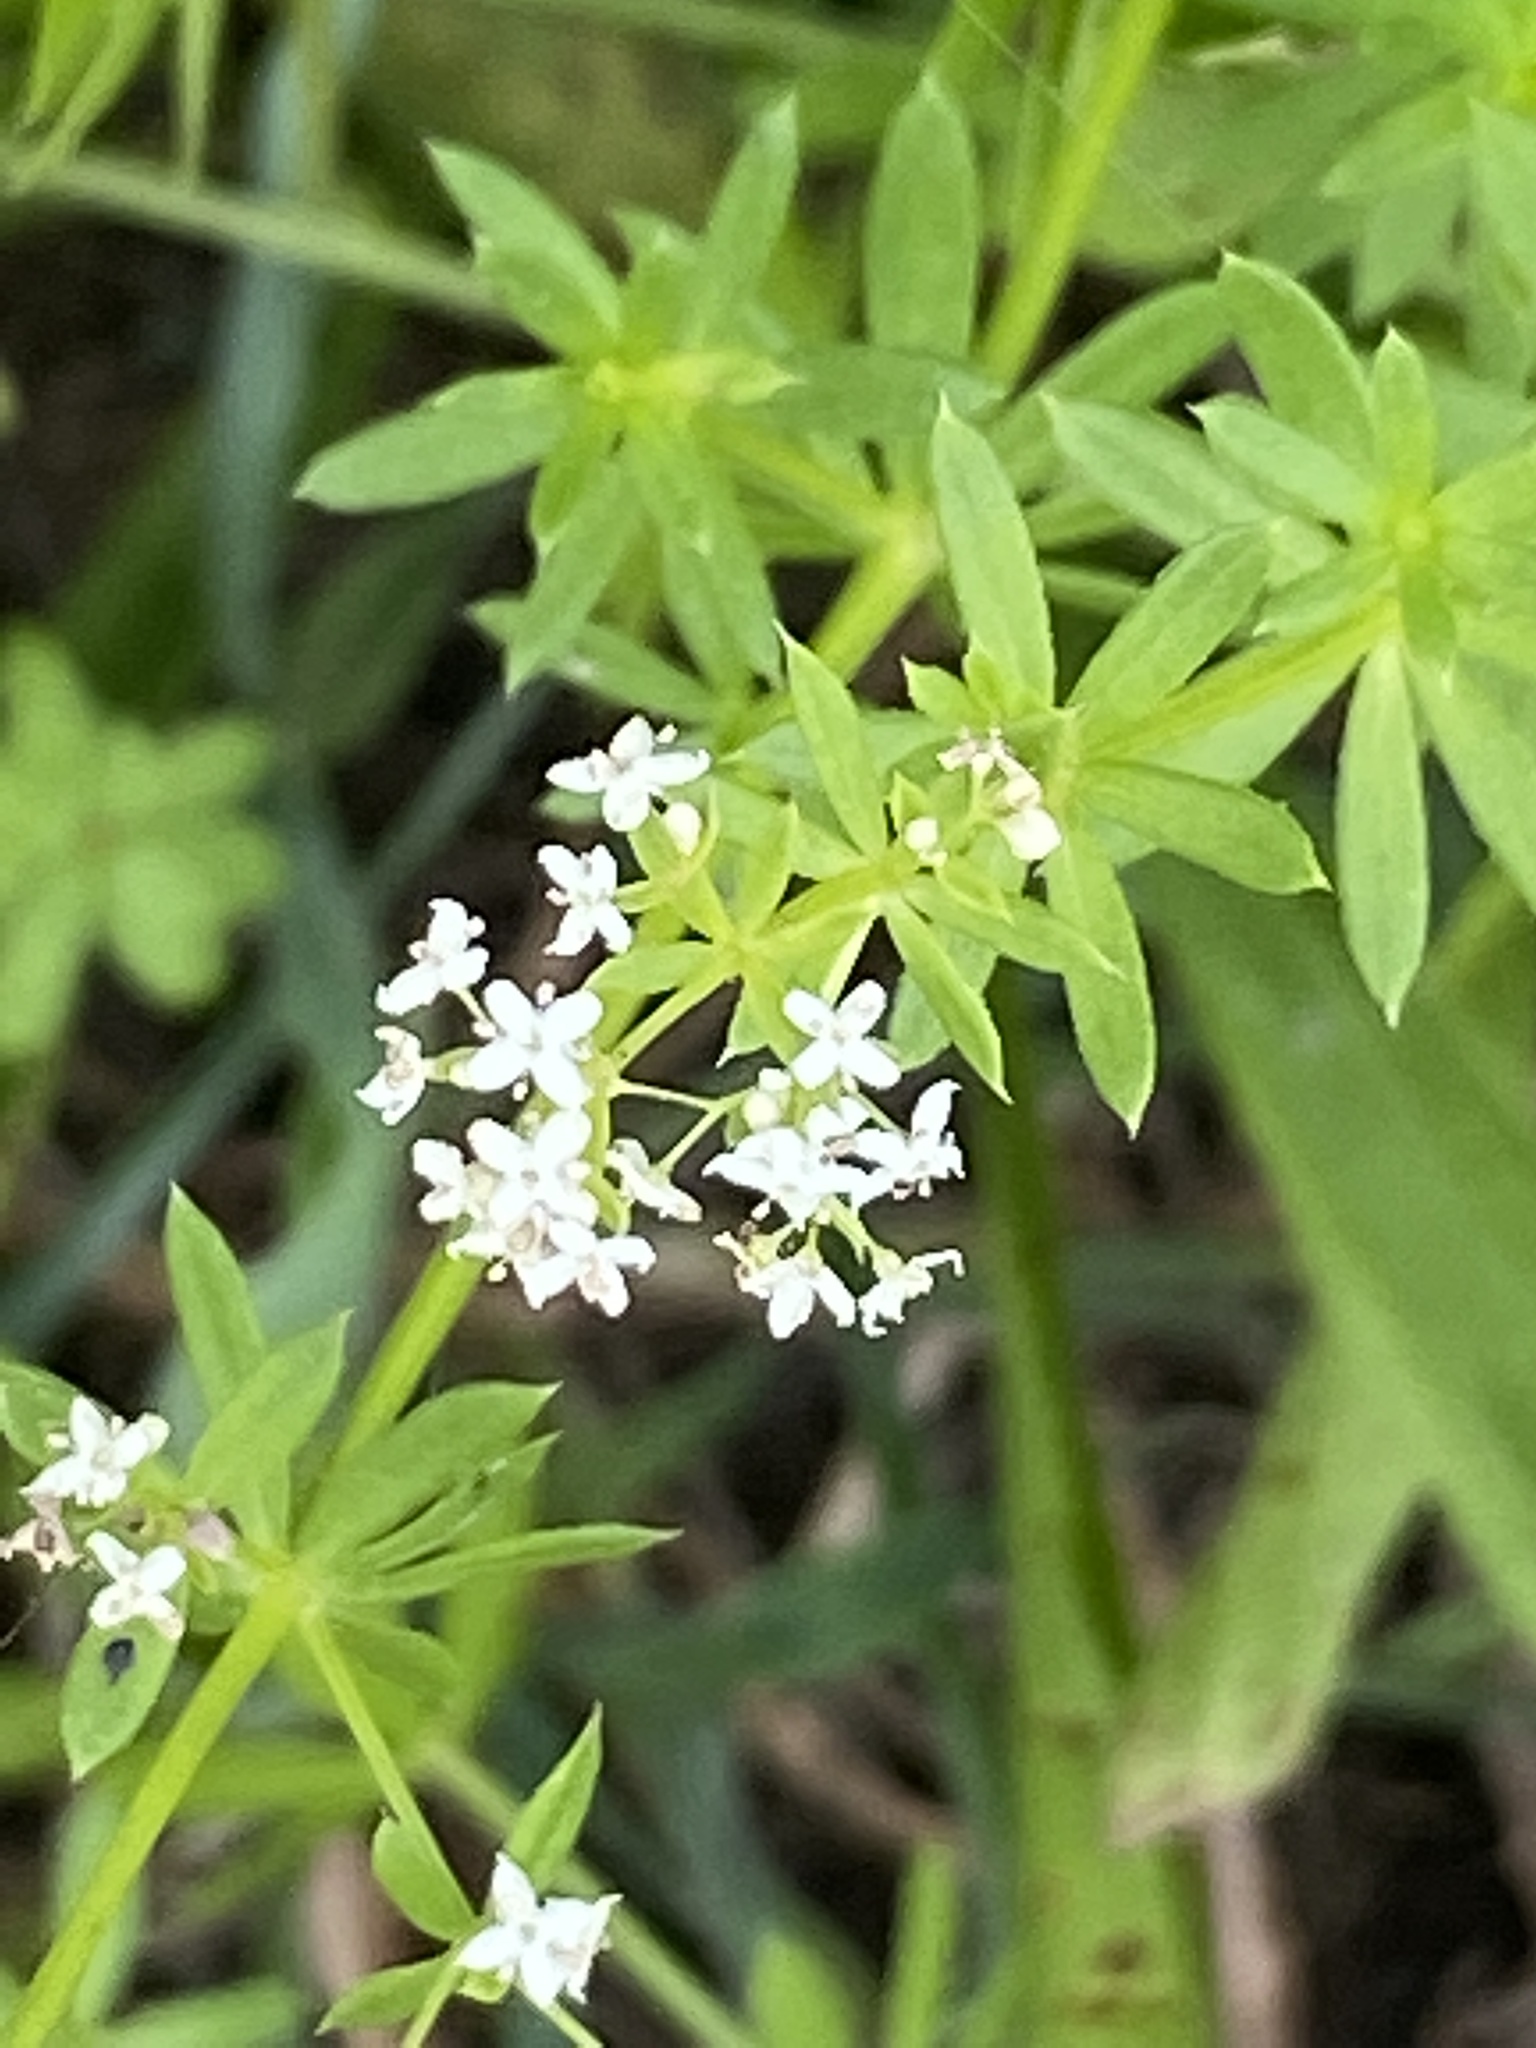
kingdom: Plantae
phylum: Tracheophyta
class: Magnoliopsida
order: Gentianales
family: Rubiaceae
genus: Galium
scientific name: Galium mollugo
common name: Hedge bedstraw
